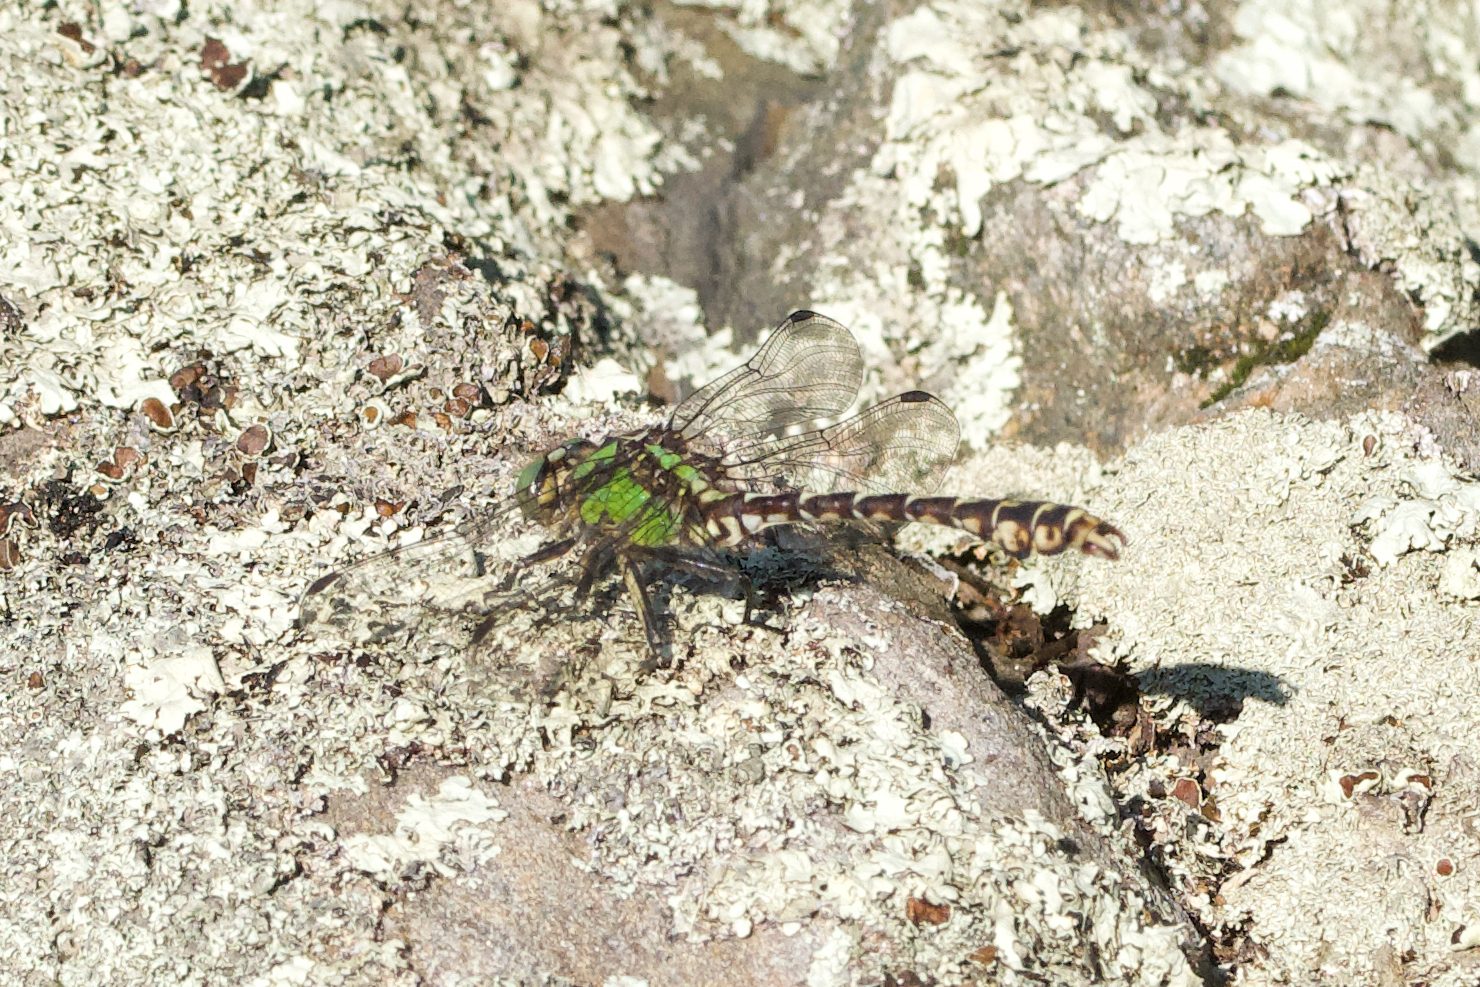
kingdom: Animalia
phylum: Arthropoda
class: Insecta
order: Odonata
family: Gomphidae
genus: Ophiogomphus
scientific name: Ophiogomphus colubrinus
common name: Boreal snaketail
